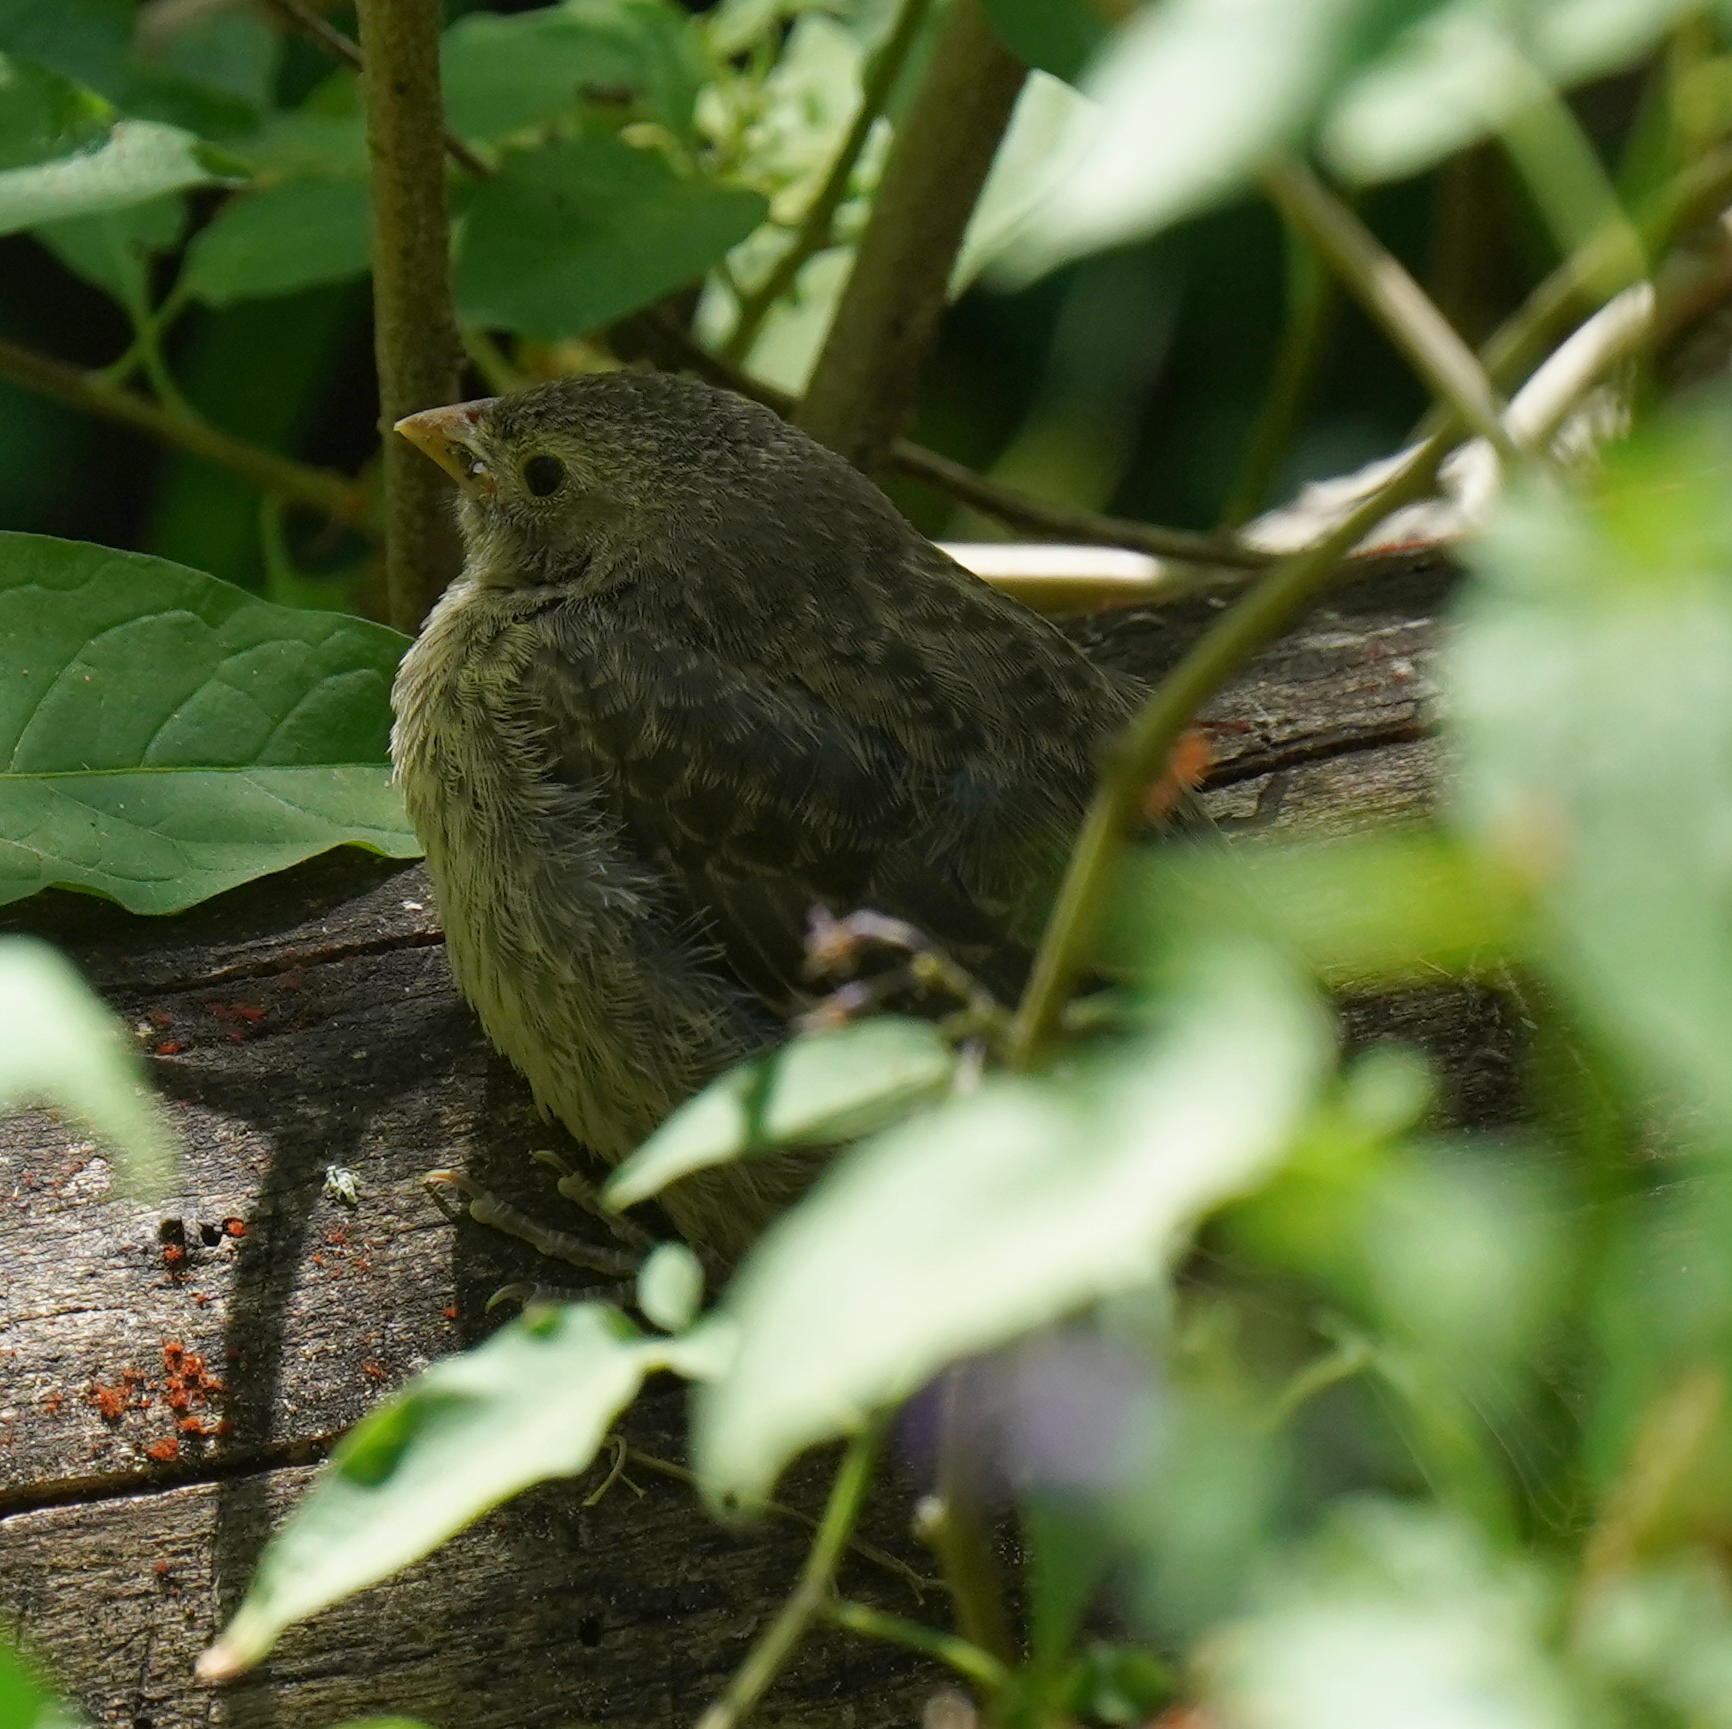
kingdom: Animalia
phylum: Chordata
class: Aves
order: Passeriformes
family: Icteridae
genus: Molothrus
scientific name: Molothrus ater
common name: Brown-headed cowbird
